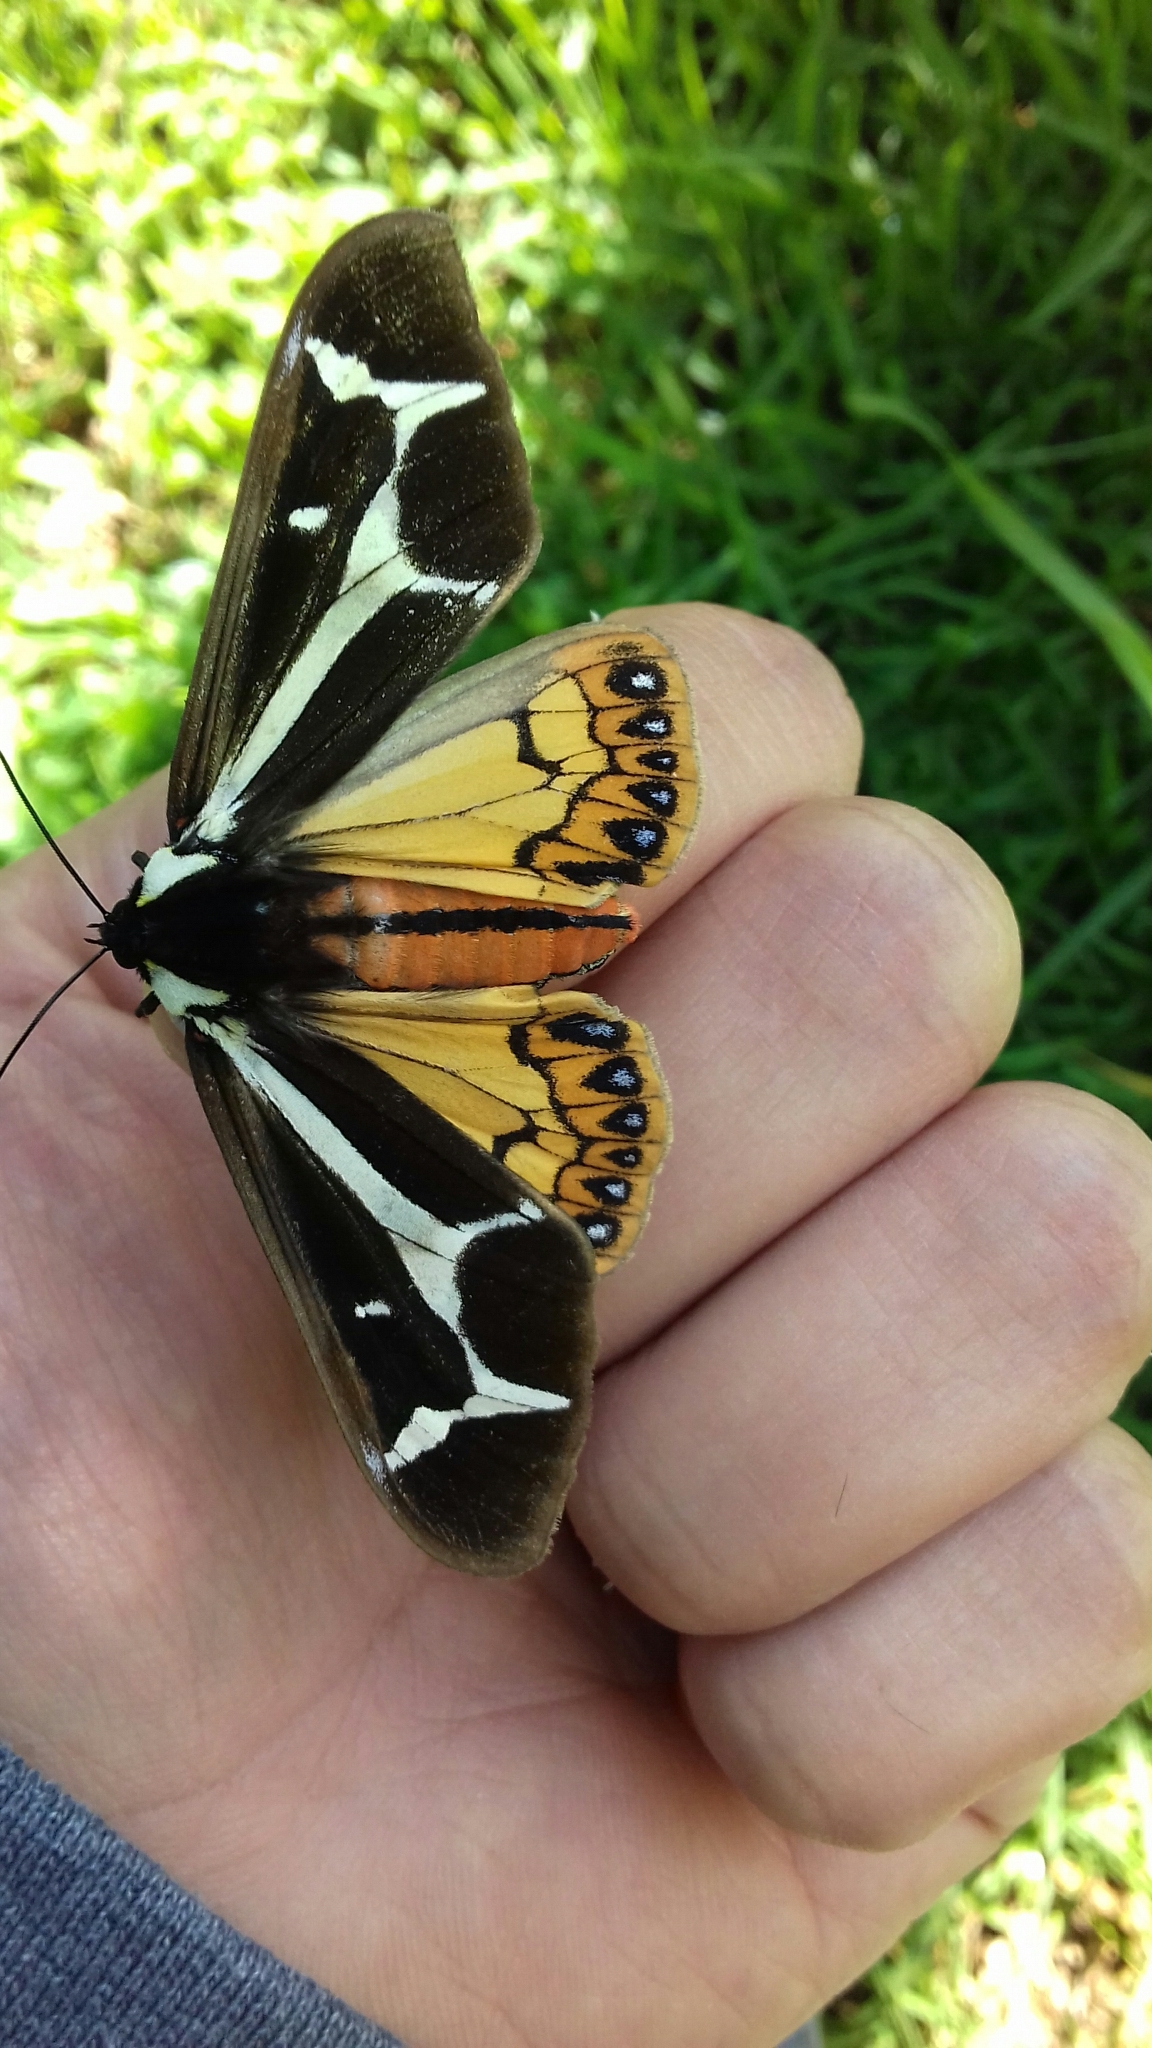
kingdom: Animalia
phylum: Arthropoda
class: Insecta
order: Lepidoptera
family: Erebidae
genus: Dysschema
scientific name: Dysschema howardi
